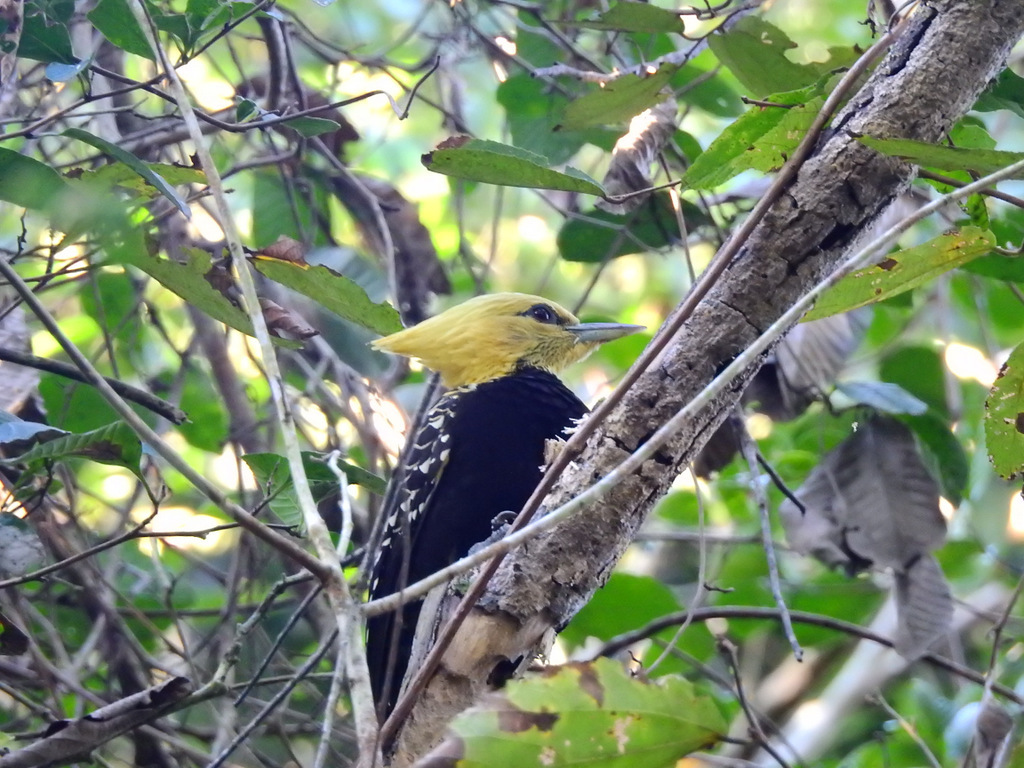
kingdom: Animalia
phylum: Chordata
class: Aves
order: Piciformes
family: Picidae
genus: Celeus
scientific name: Celeus flavescens
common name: Blond-crested woodpecker
